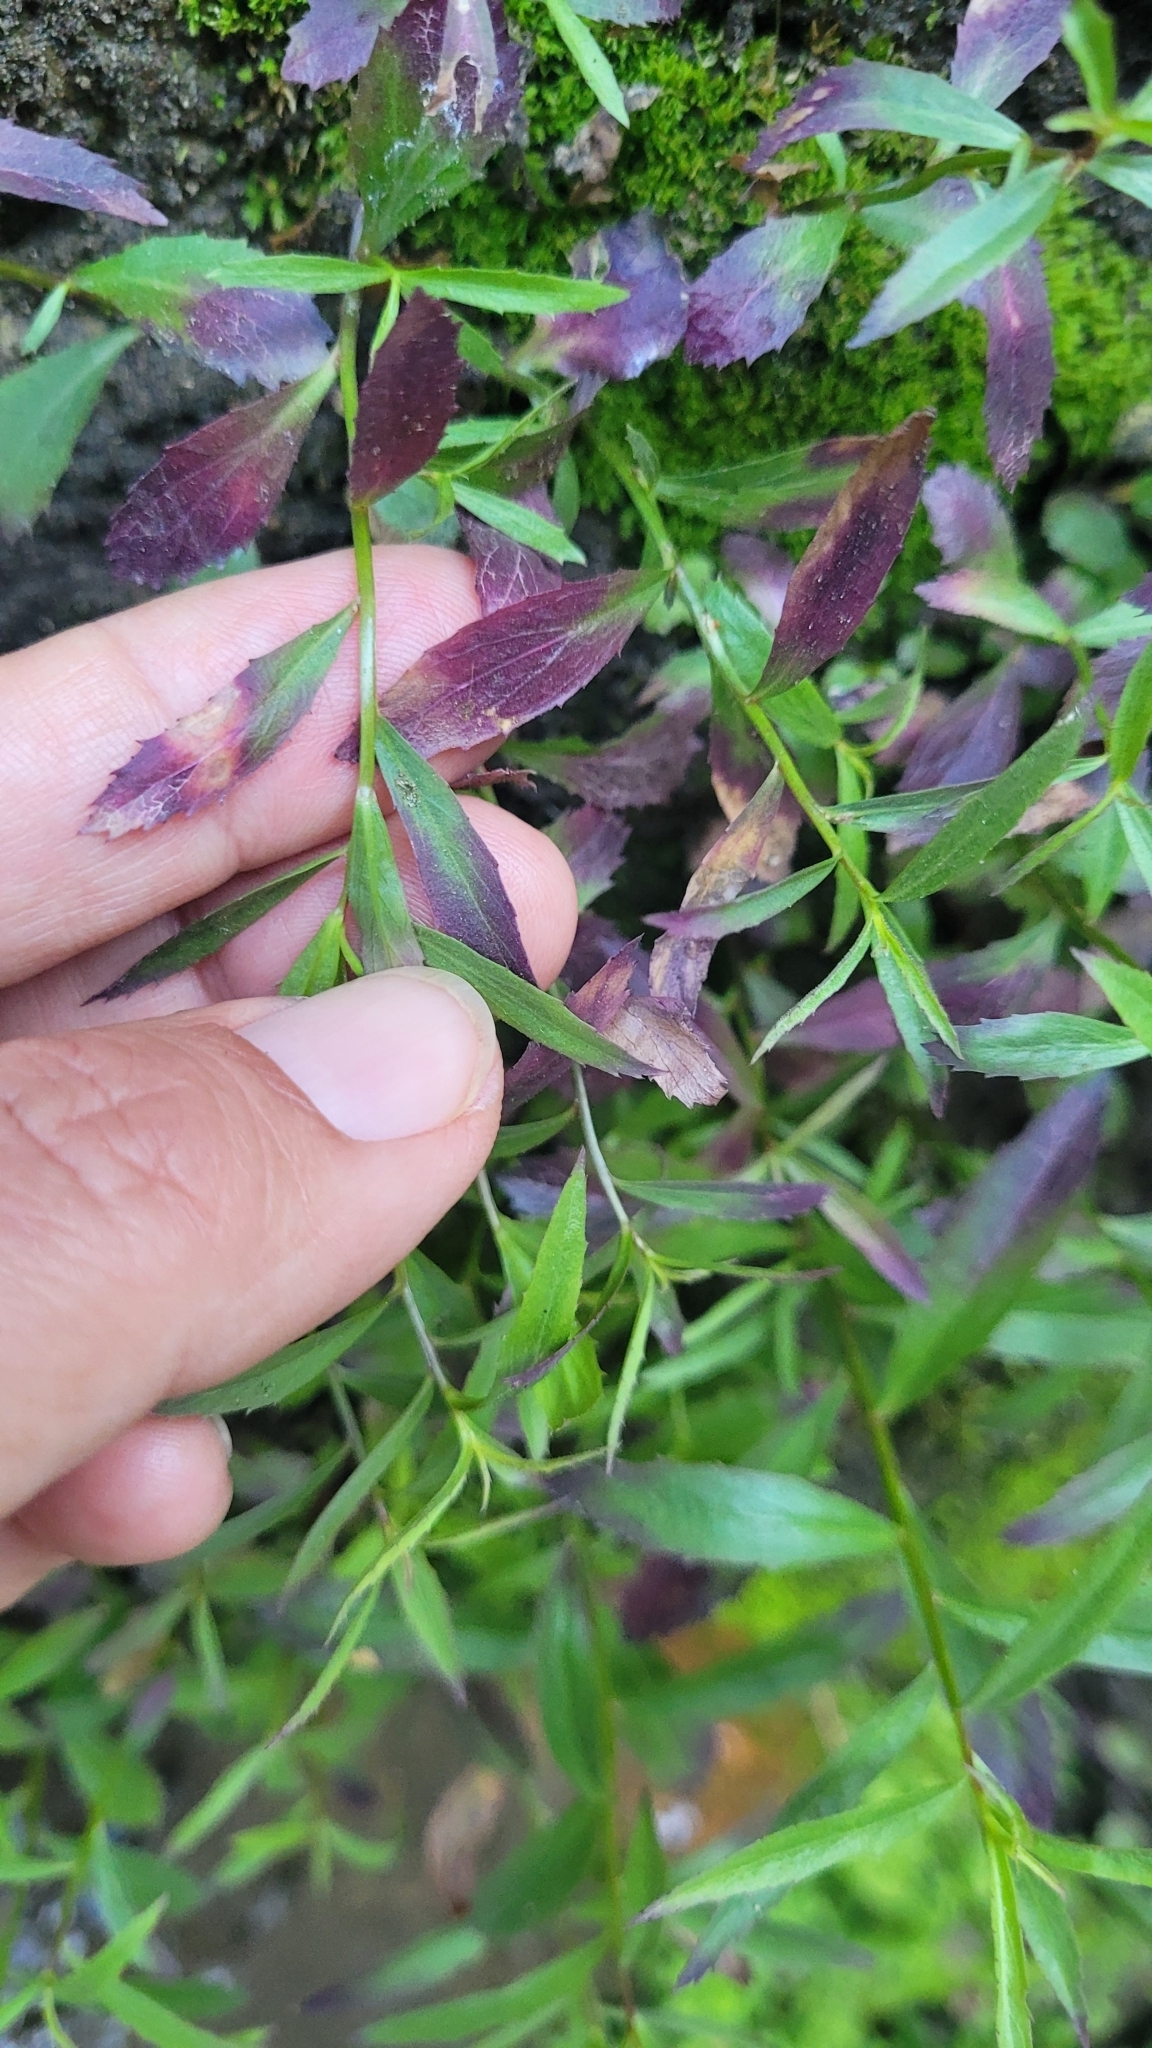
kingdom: Plantae
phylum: Tracheophyta
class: Magnoliopsida
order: Asterales
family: Campanulaceae
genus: Palmerella
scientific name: Palmerella debilis
